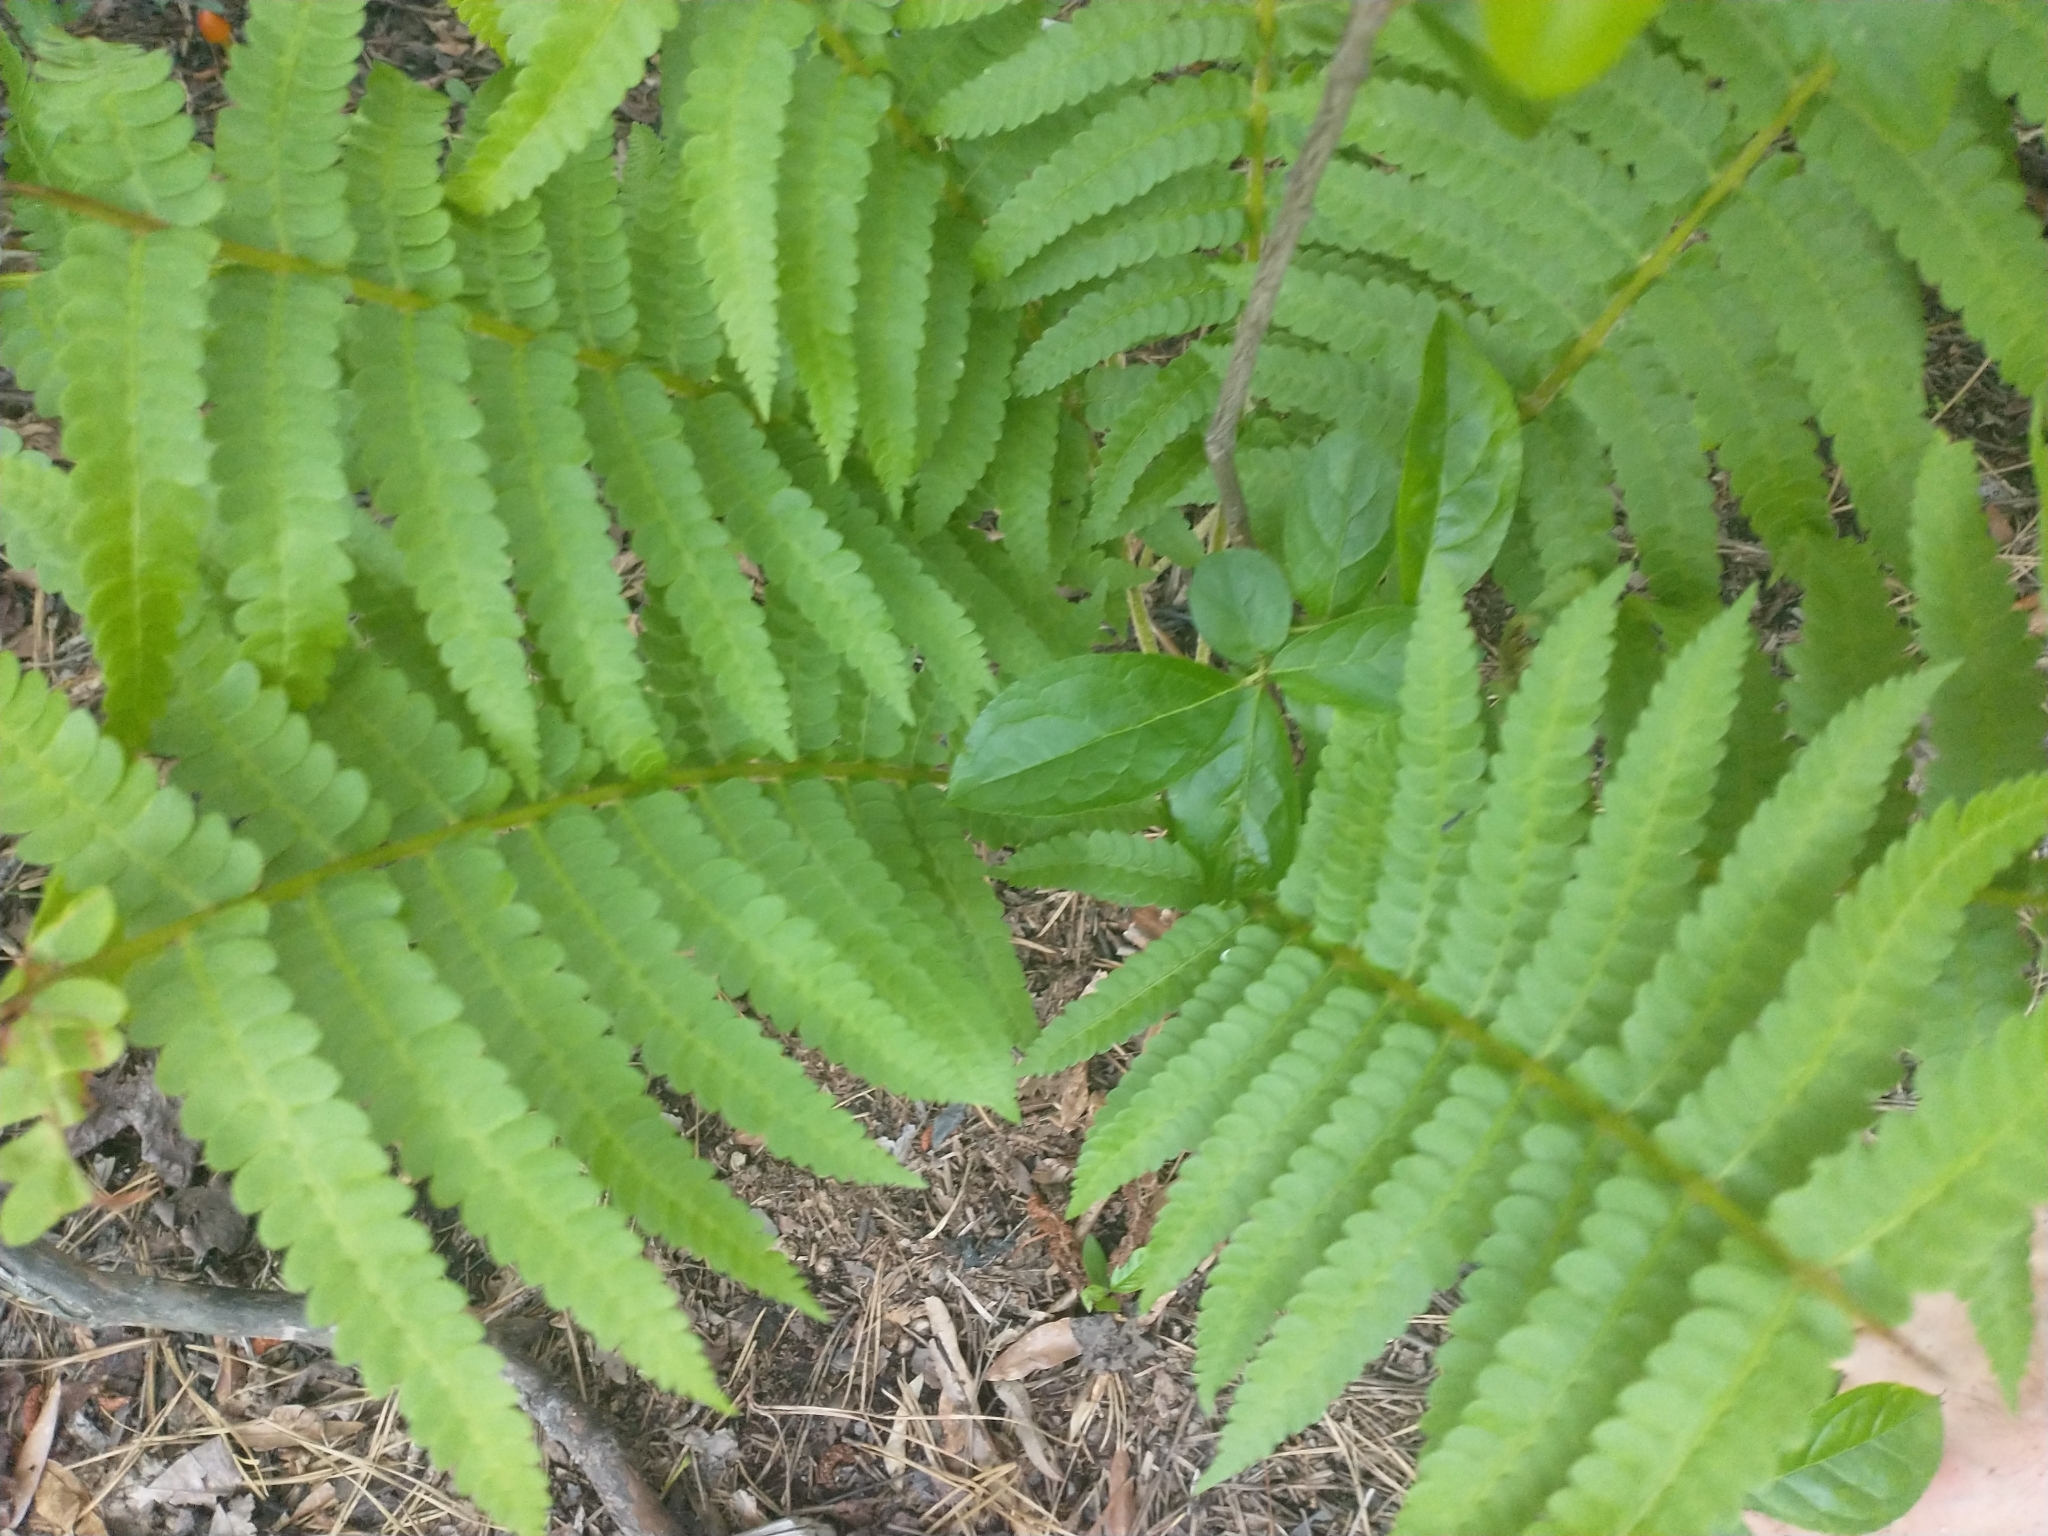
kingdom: Plantae
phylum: Tracheophyta
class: Polypodiopsida
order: Osmundales
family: Osmundaceae
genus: Osmundastrum
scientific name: Osmundastrum cinnamomeum
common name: Cinnamon fern
